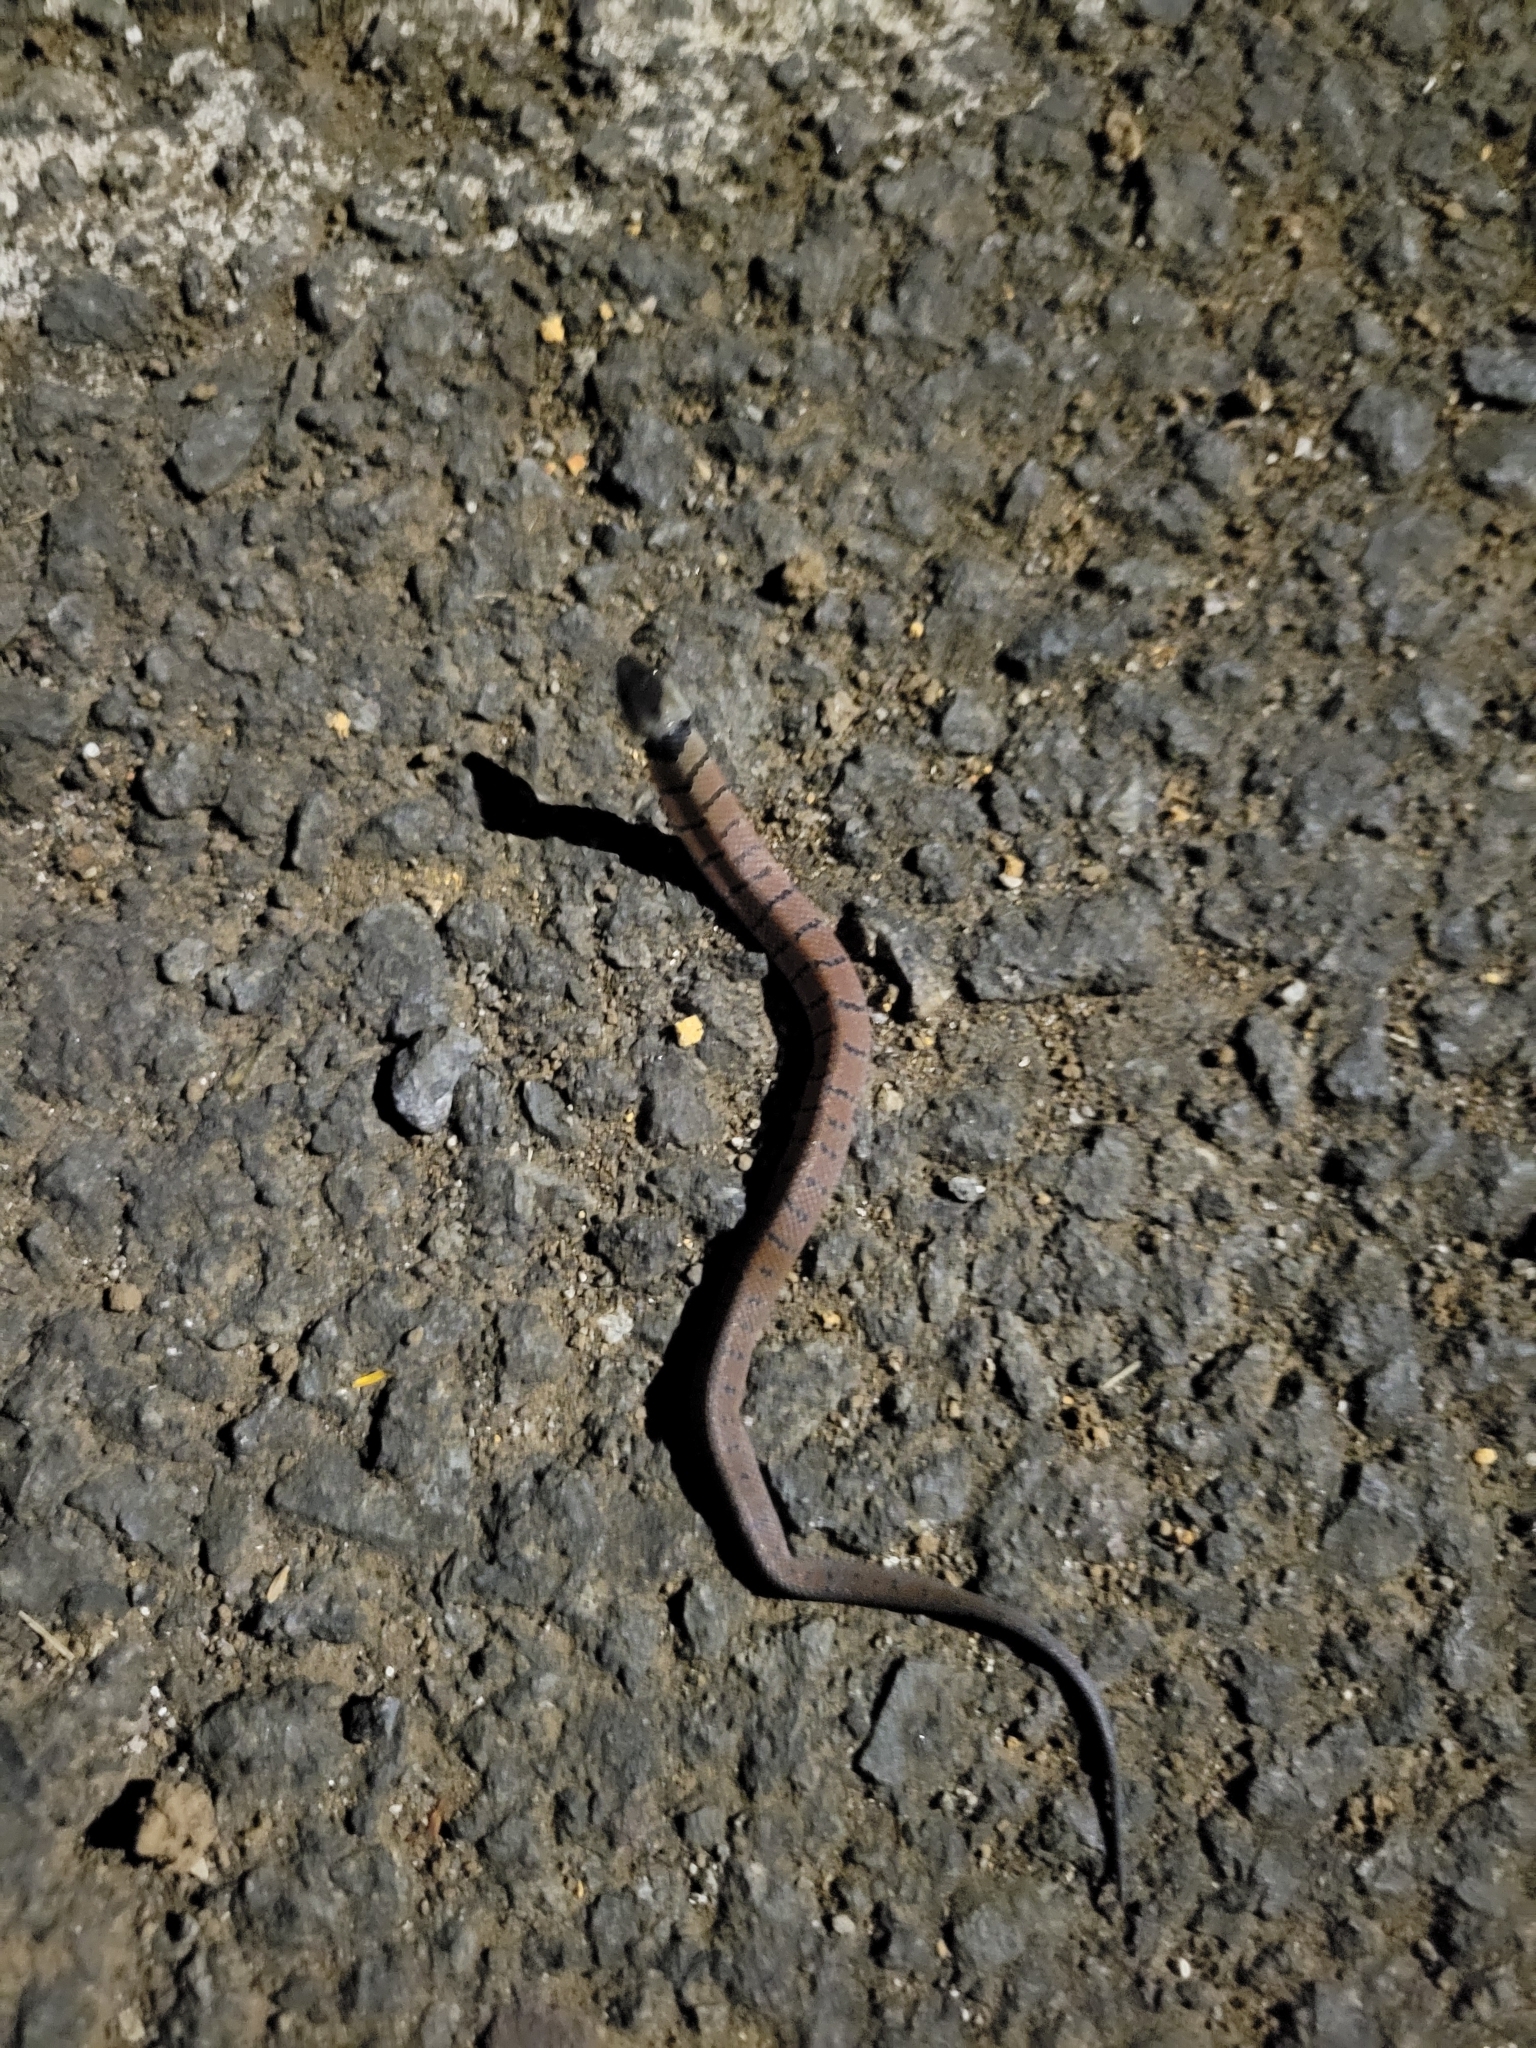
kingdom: Animalia
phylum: Chordata
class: Squamata
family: Colubridae
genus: Ninia
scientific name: Ninia maculata
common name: Spotted coffee snake
